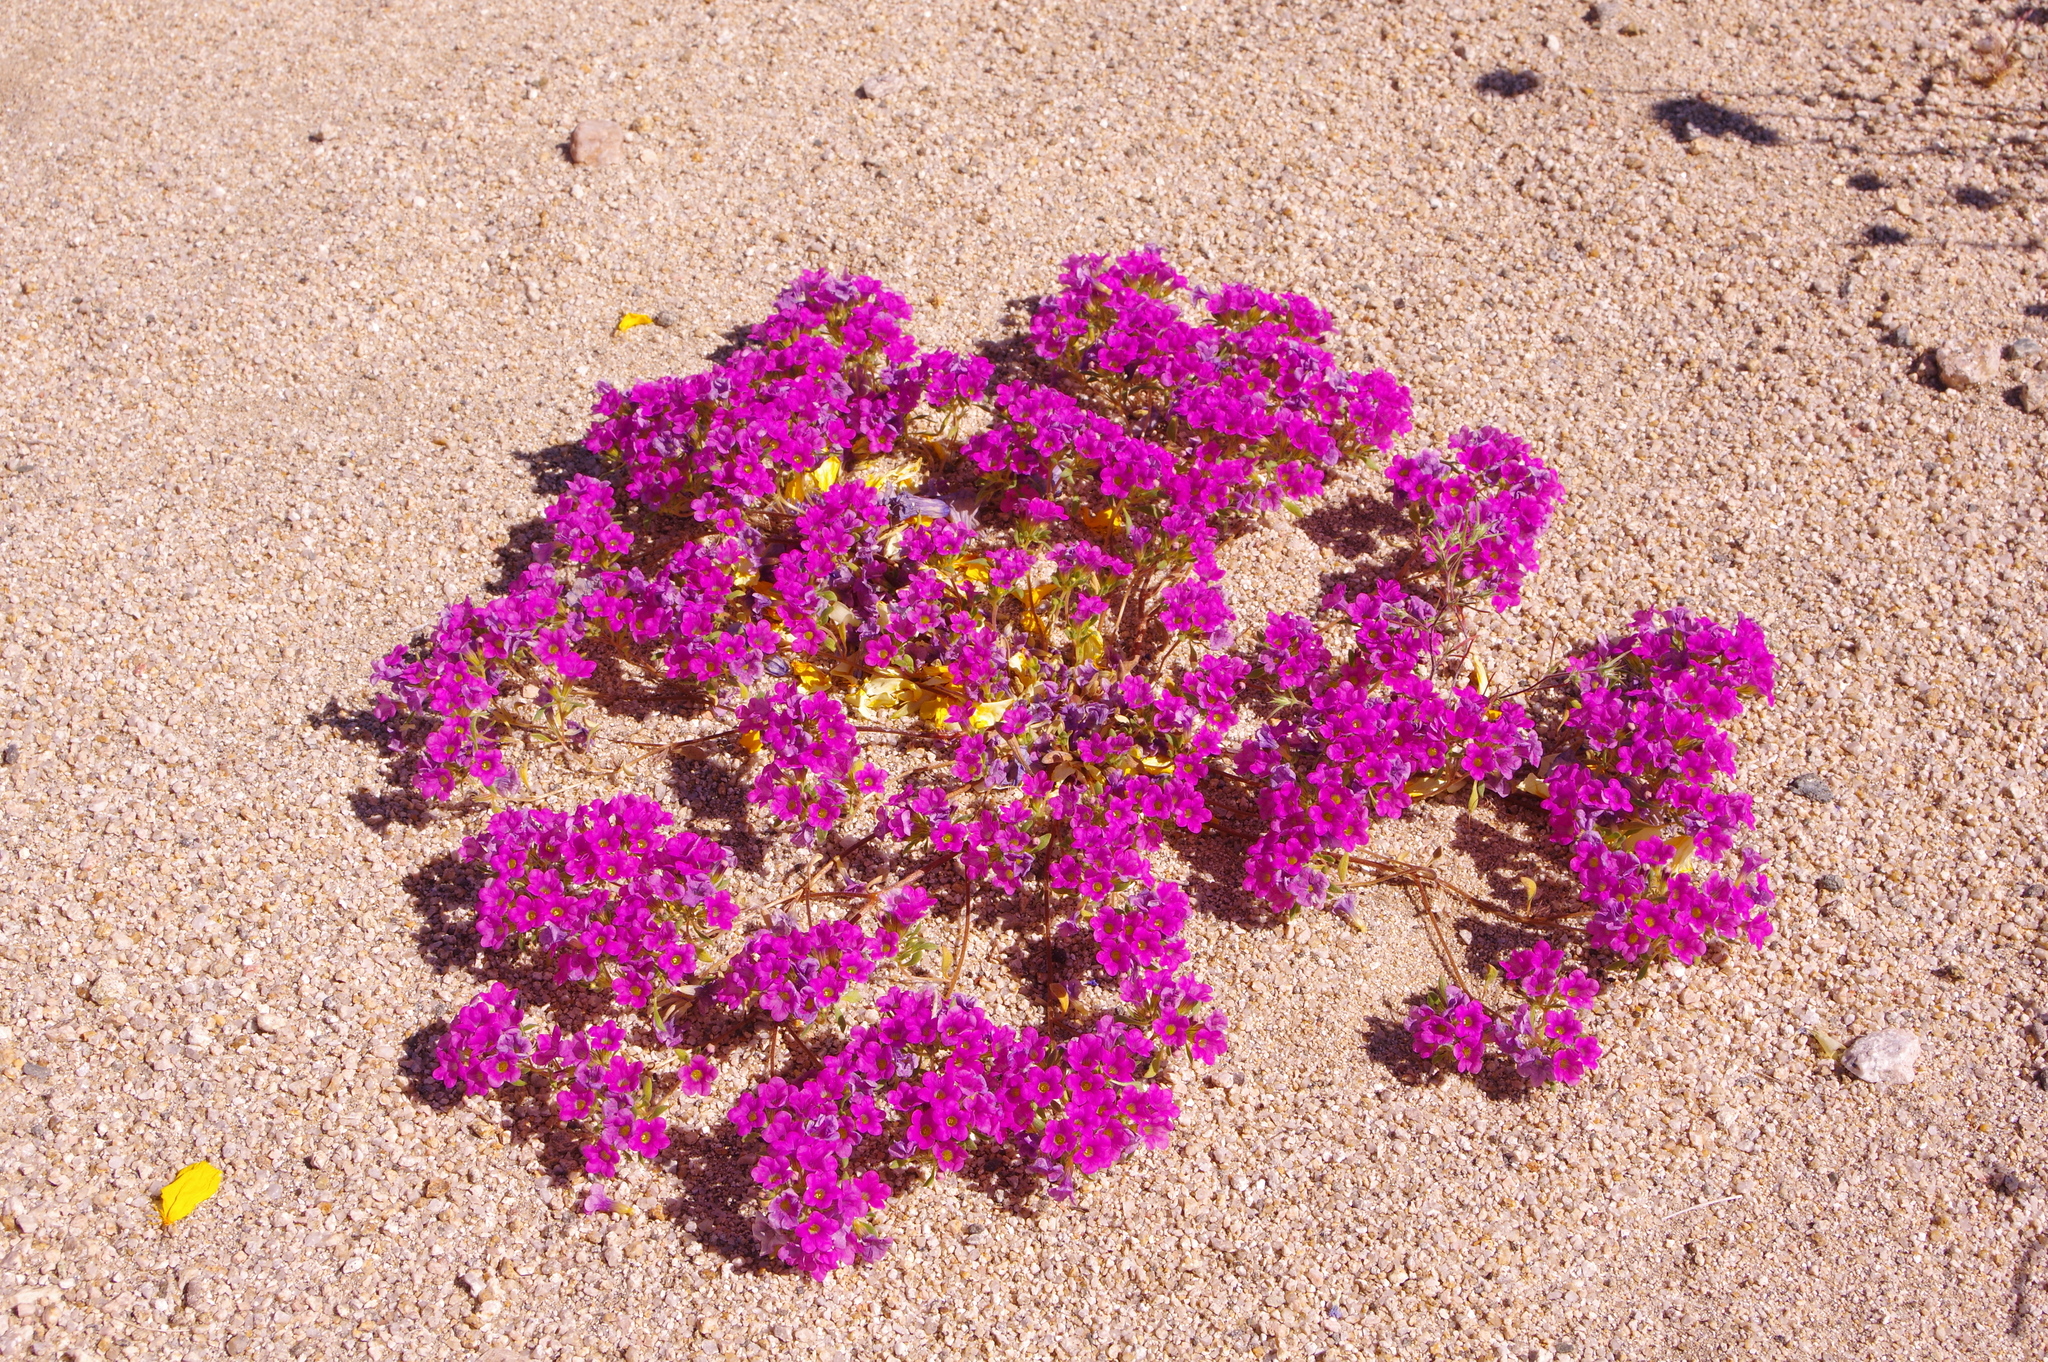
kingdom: Plantae
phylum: Tracheophyta
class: Magnoliopsida
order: Boraginales
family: Namaceae
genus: Nama
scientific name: Nama demissa
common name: Leafy nama
